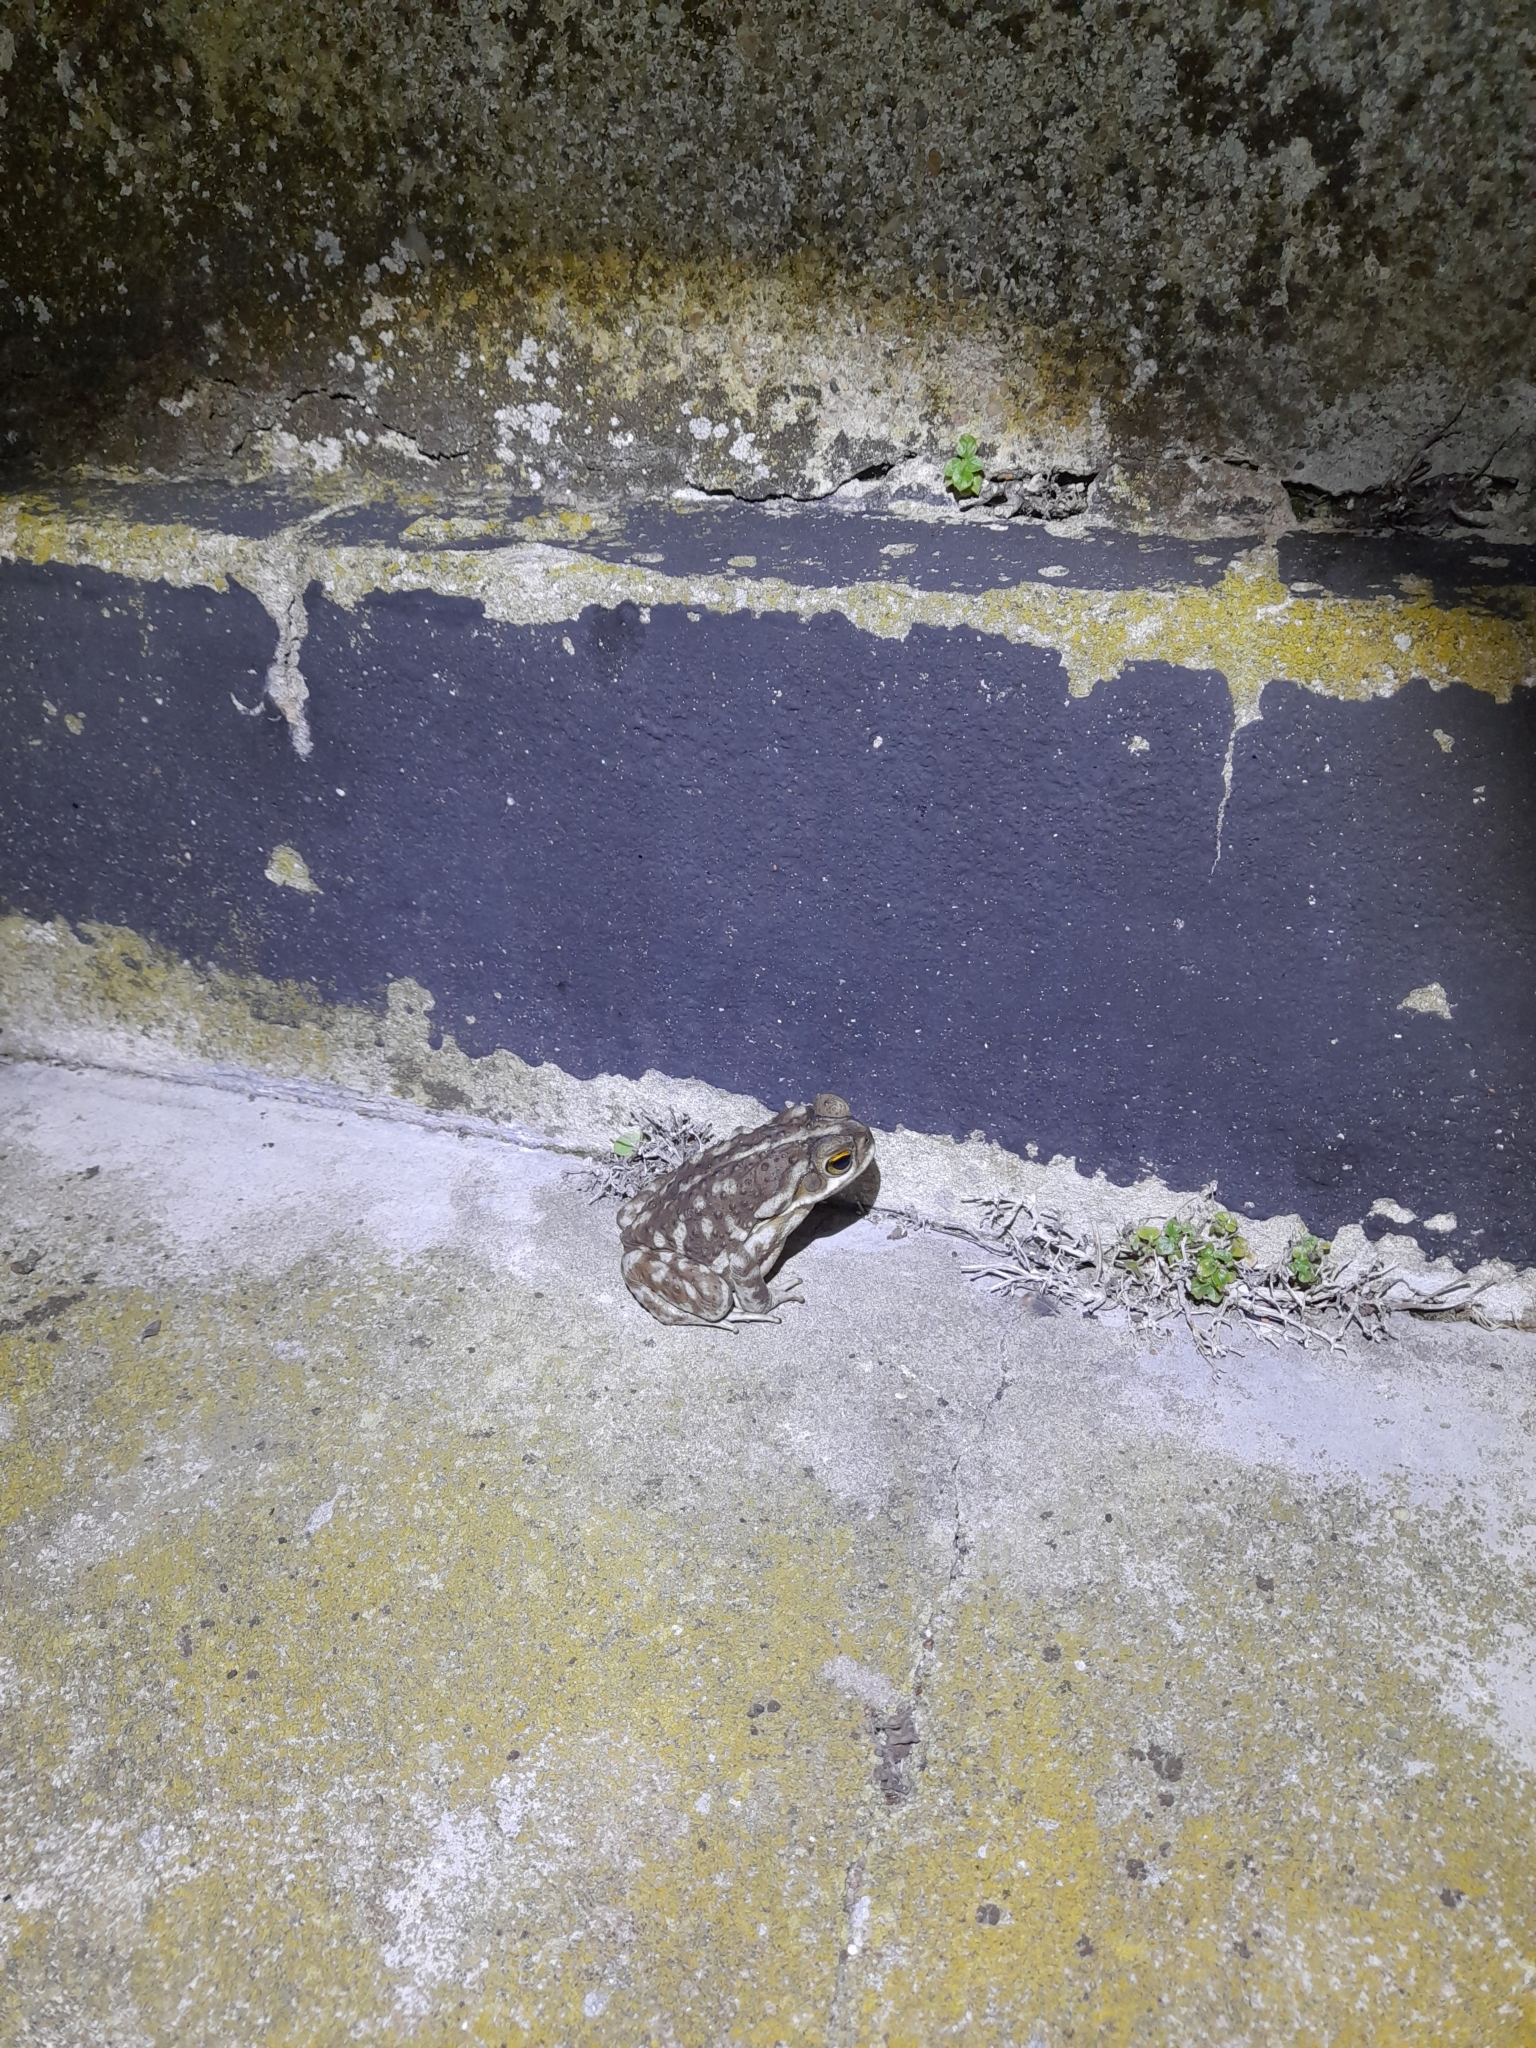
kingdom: Animalia
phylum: Chordata
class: Amphibia
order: Anura
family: Bufonidae
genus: Rhinella
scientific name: Rhinella arenarum
